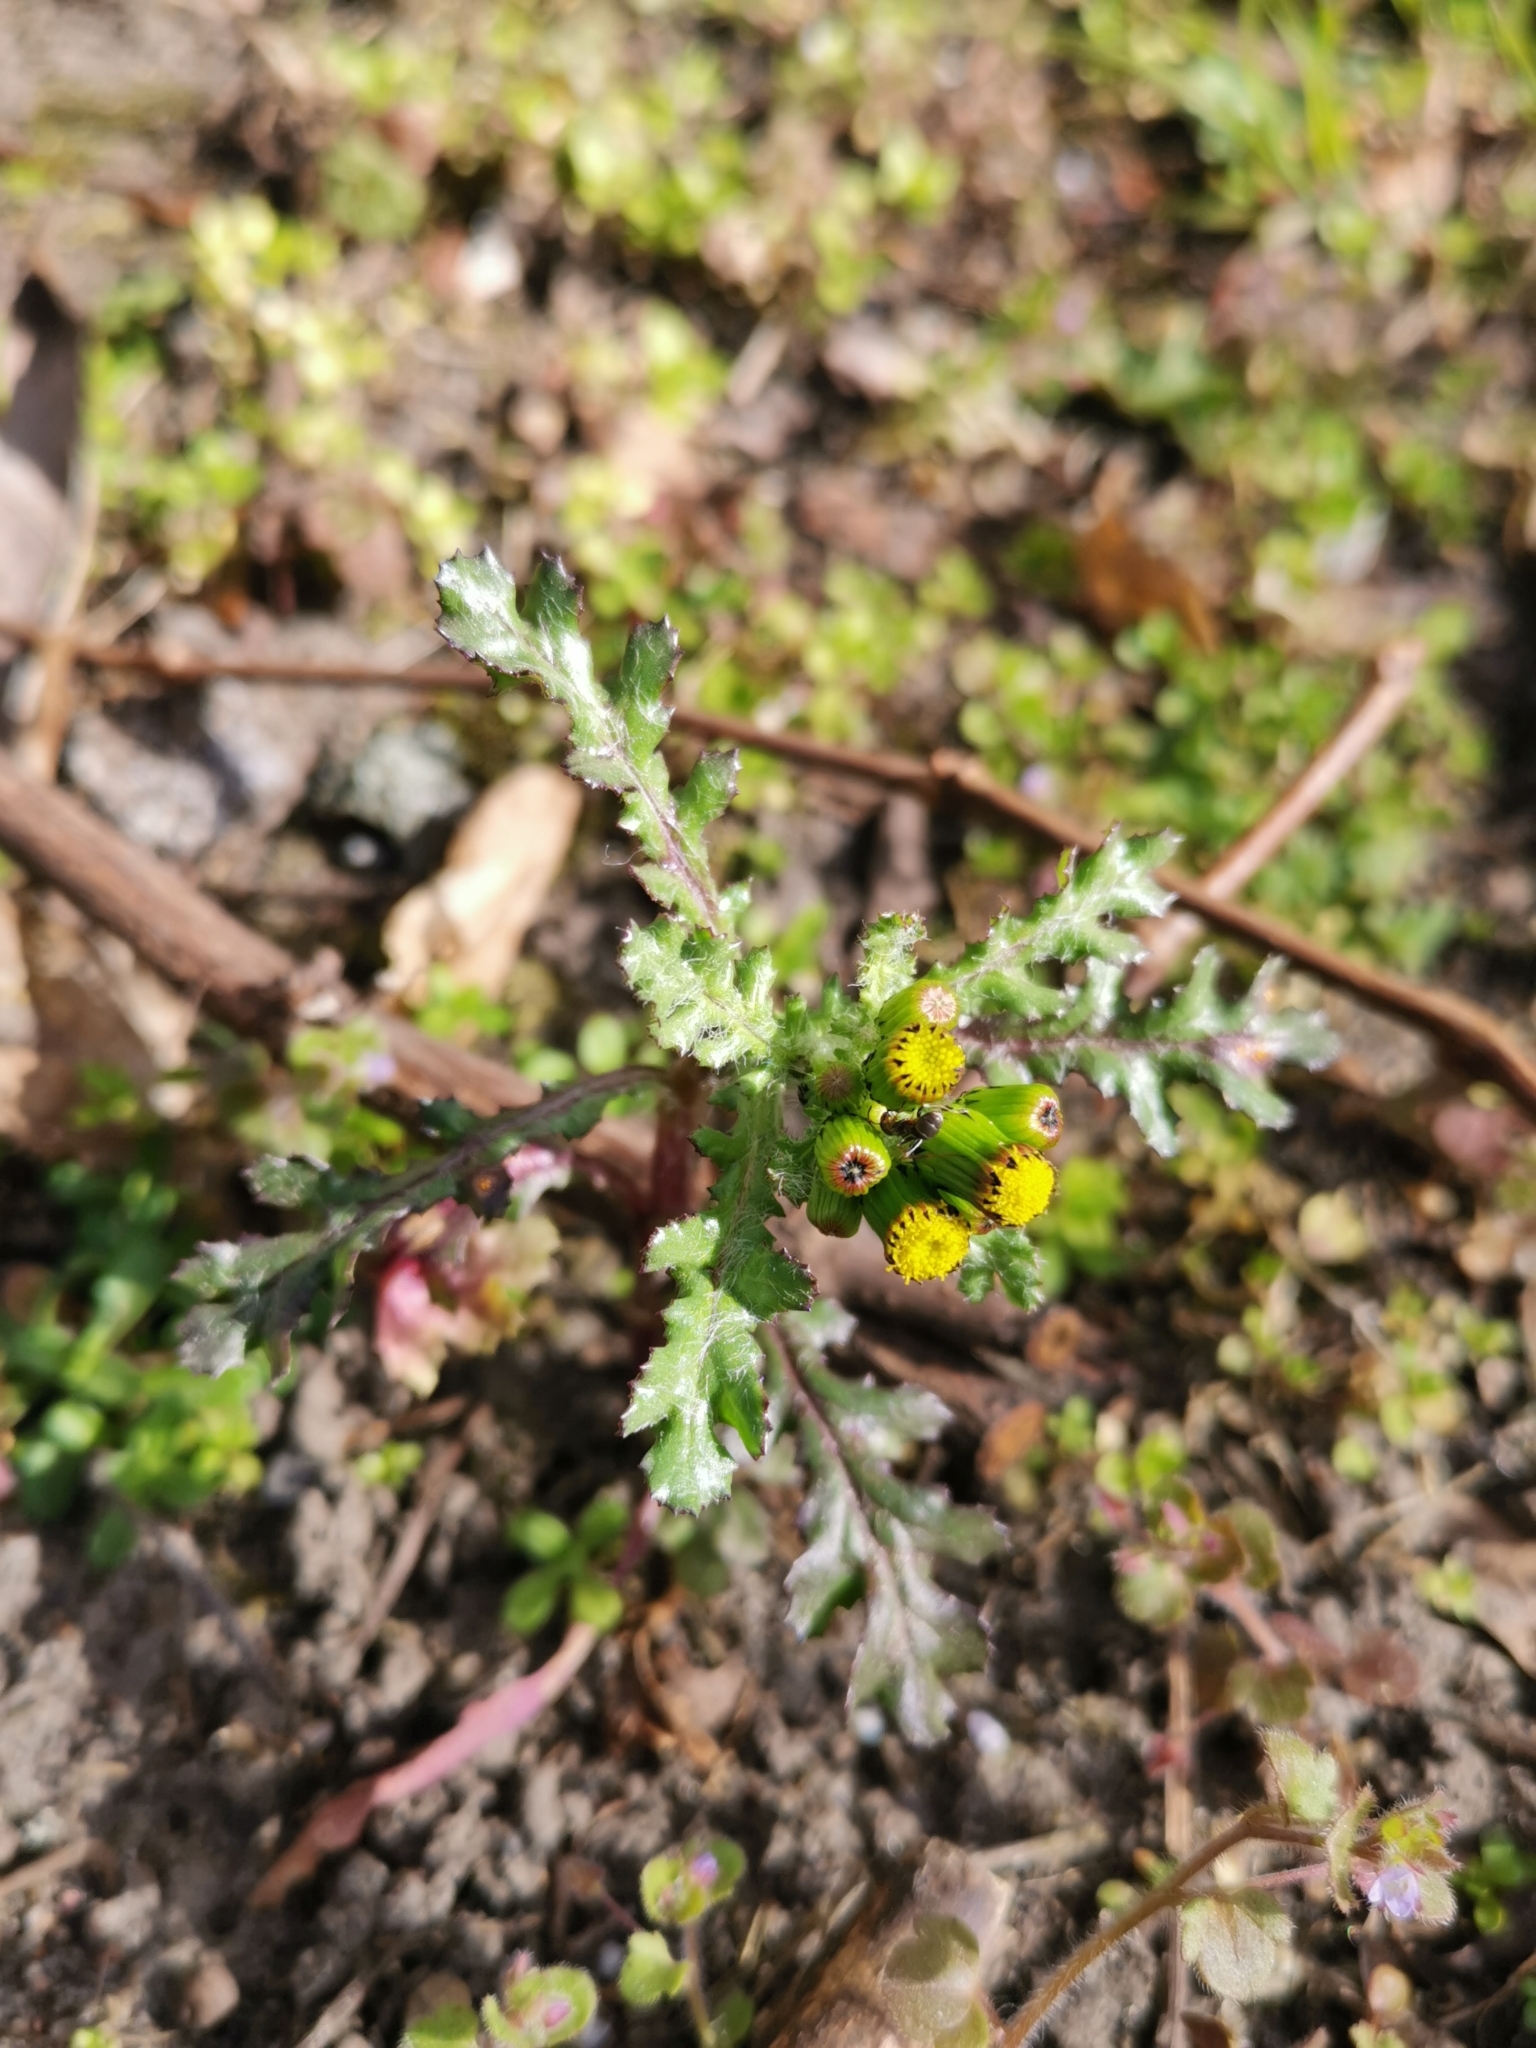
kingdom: Plantae
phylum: Tracheophyta
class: Magnoliopsida
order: Asterales
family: Asteraceae
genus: Senecio
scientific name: Senecio vulgaris
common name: Old-man-in-the-spring
